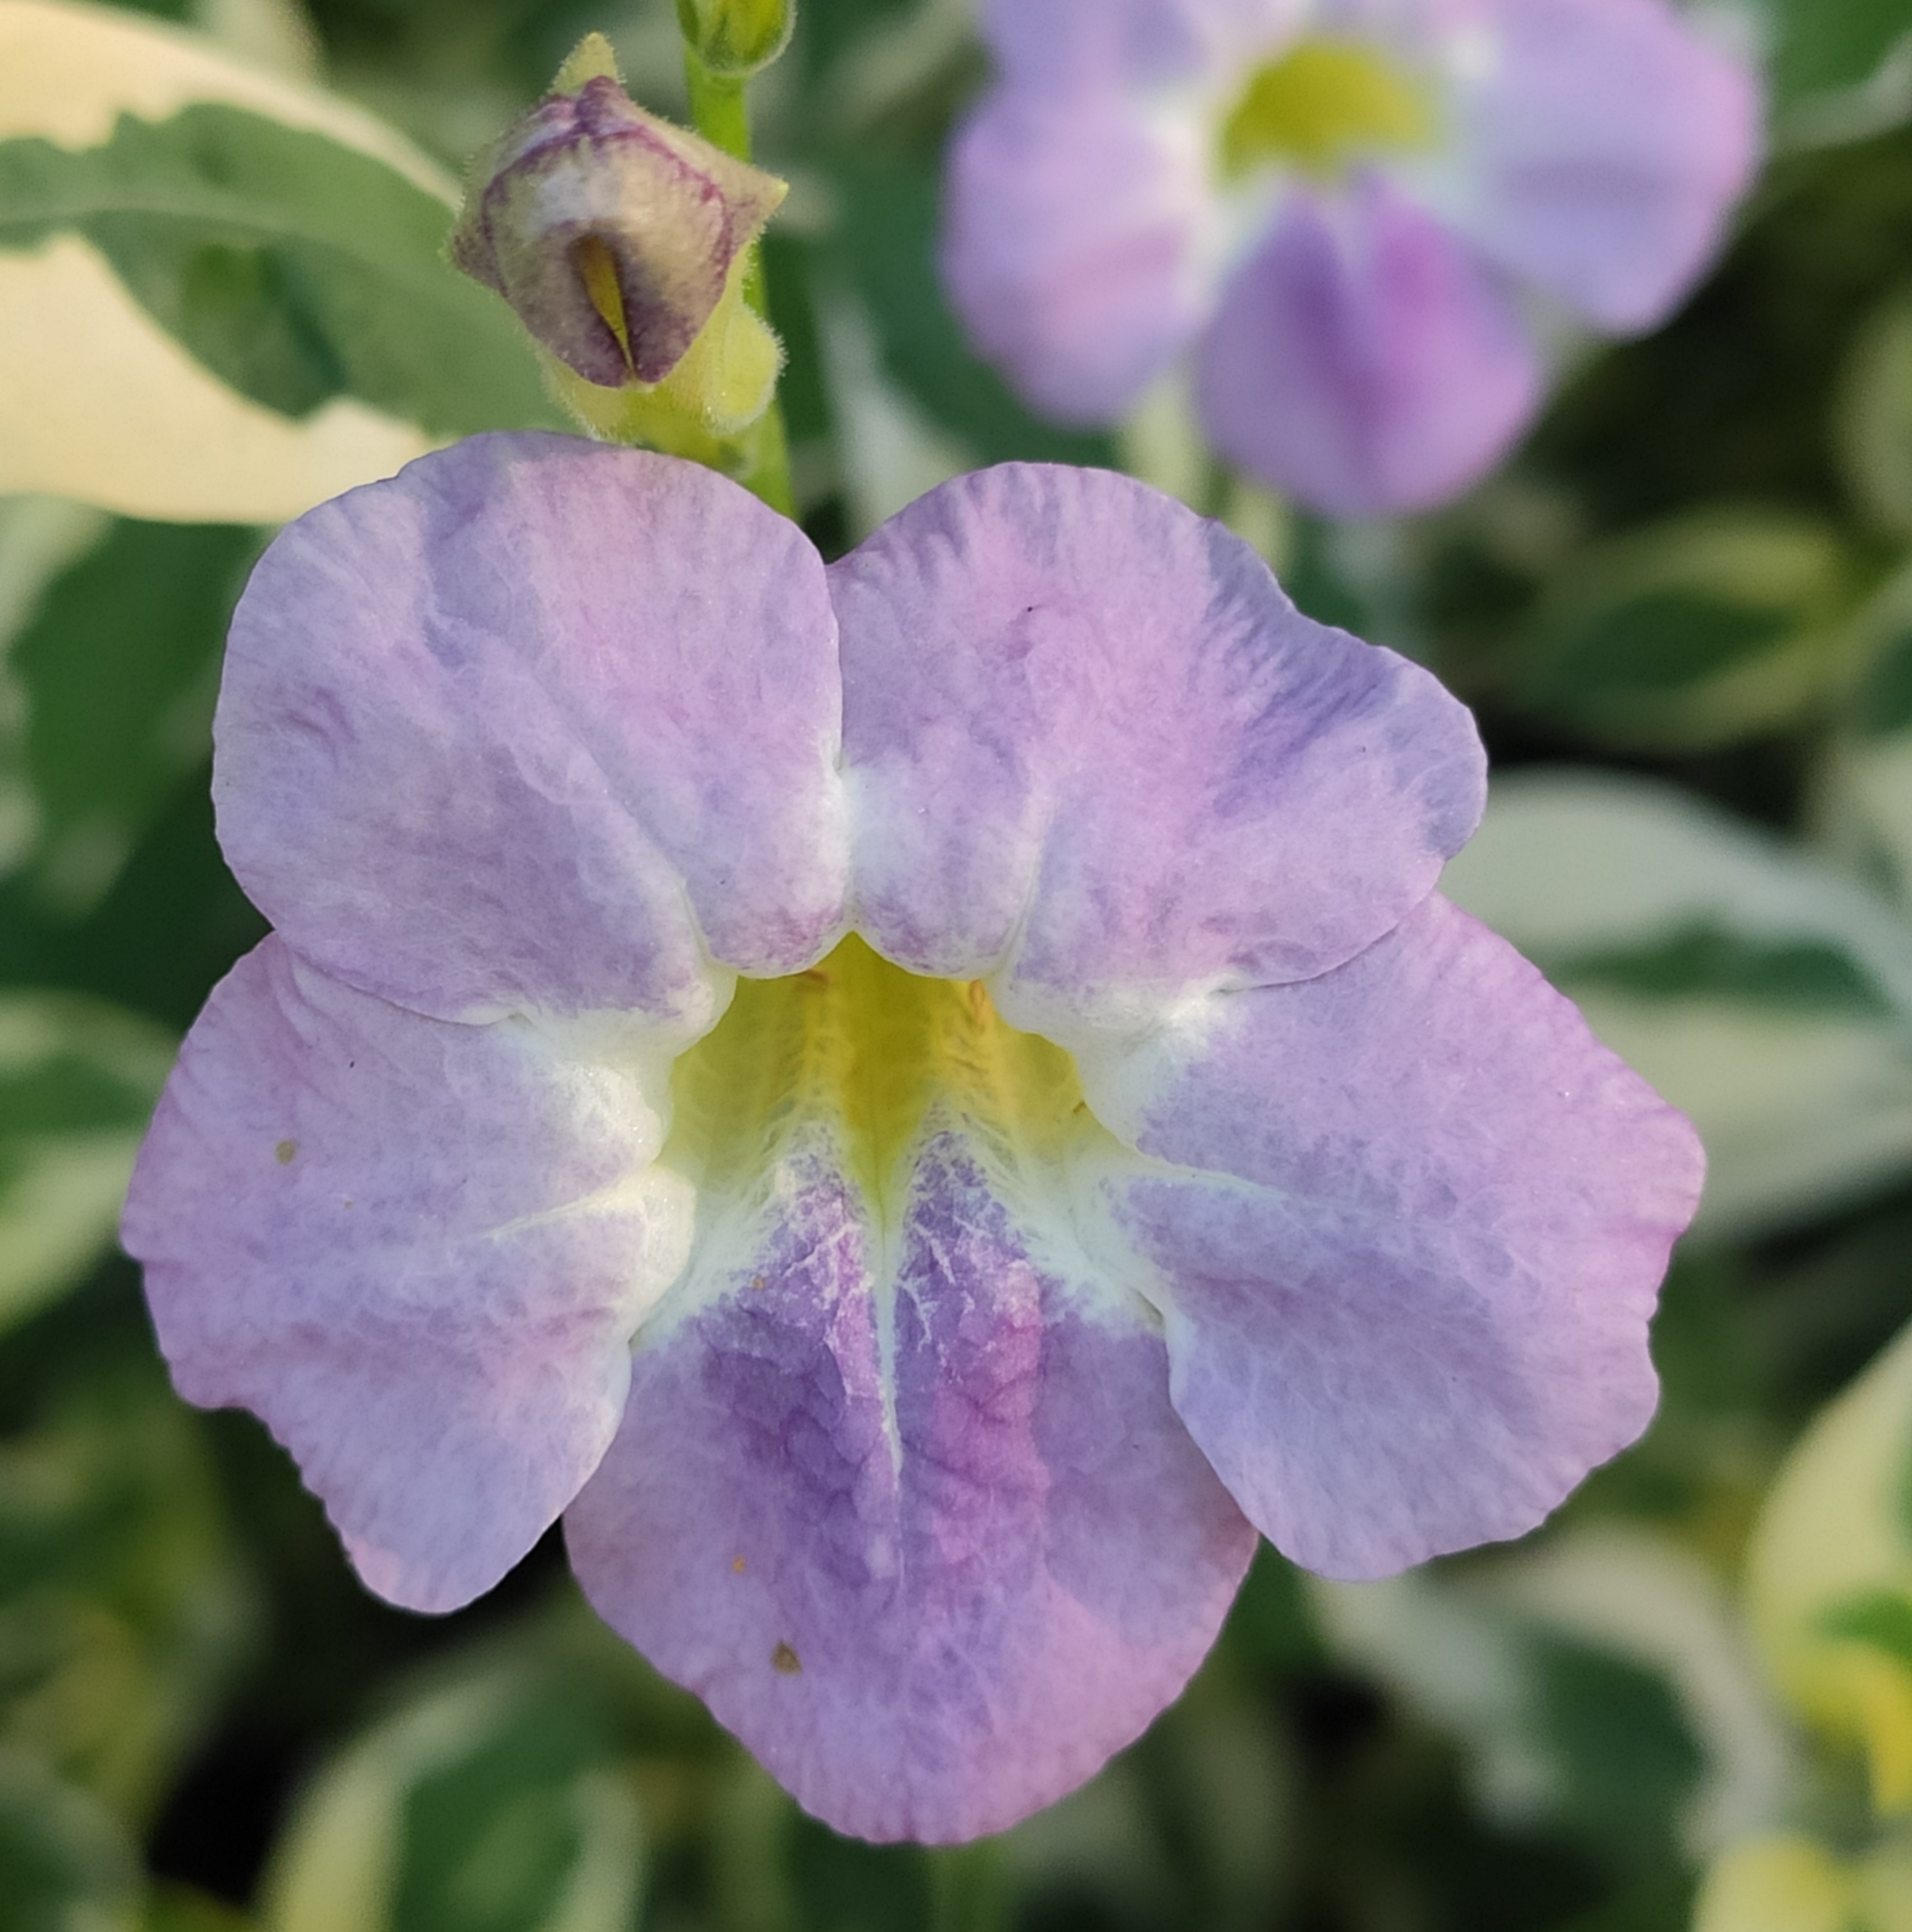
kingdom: Plantae
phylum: Tracheophyta
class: Magnoliopsida
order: Lamiales
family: Acanthaceae
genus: Asystasia
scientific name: Asystasia gangetica
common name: Chinese violet
